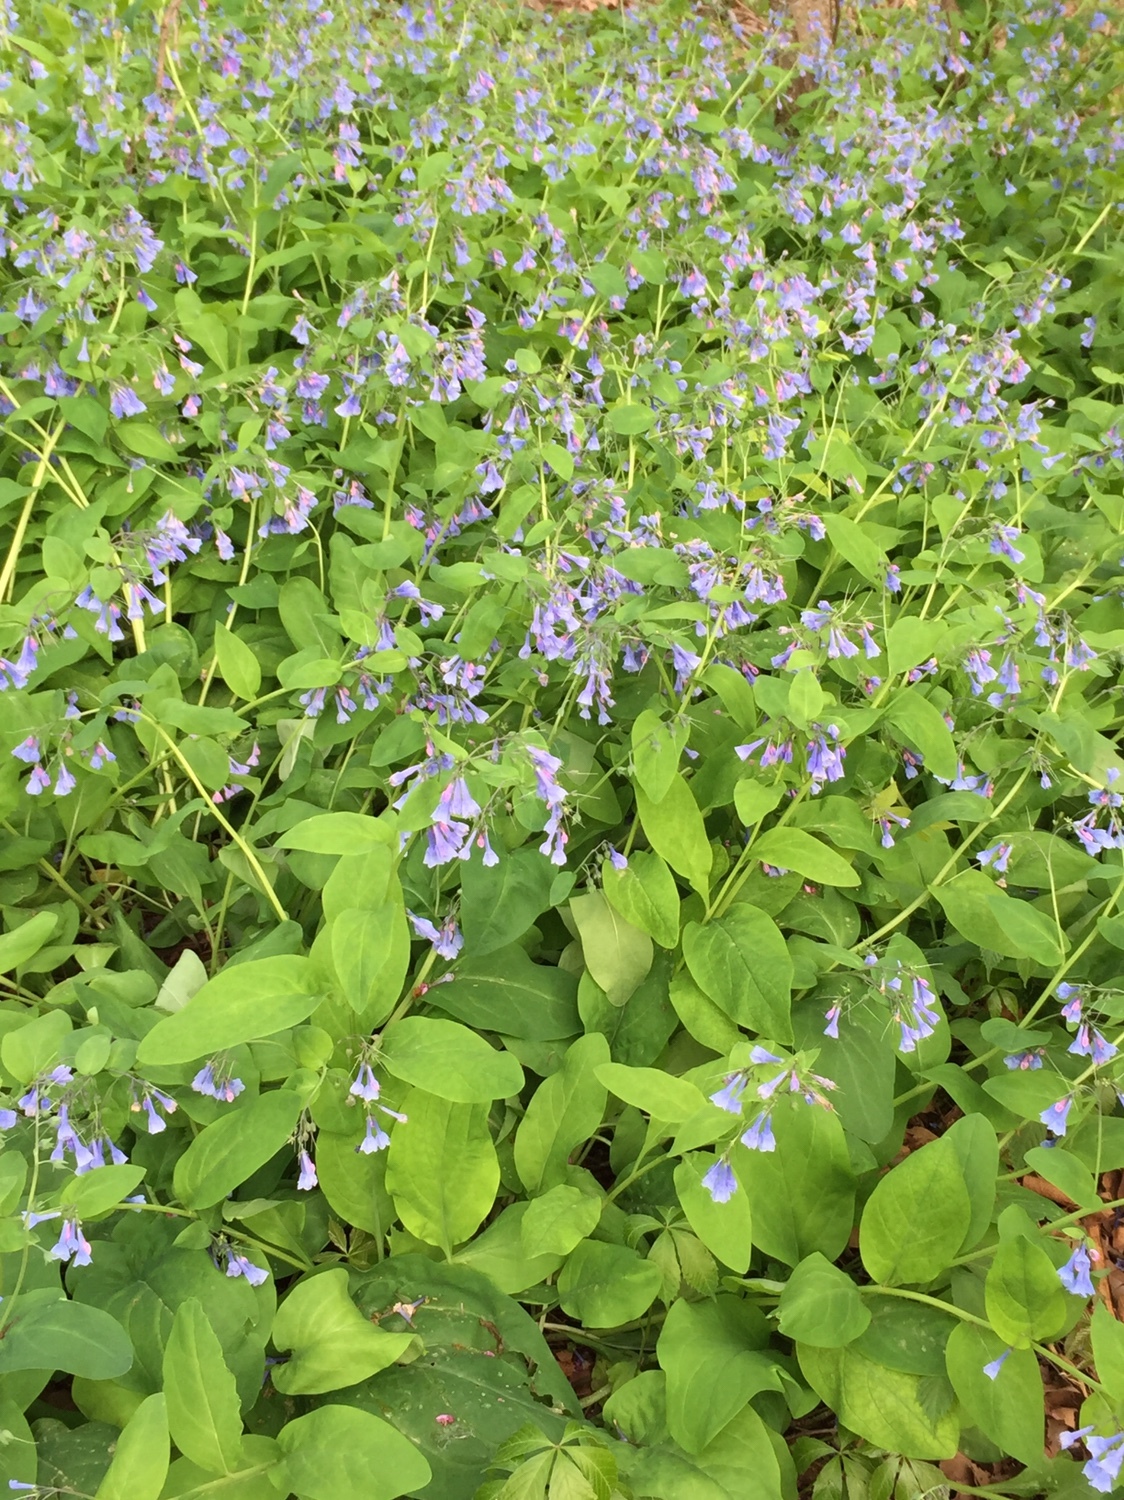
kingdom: Plantae
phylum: Tracheophyta
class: Magnoliopsida
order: Boraginales
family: Boraginaceae
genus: Mertensia
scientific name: Mertensia virginica
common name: Virginia bluebells
